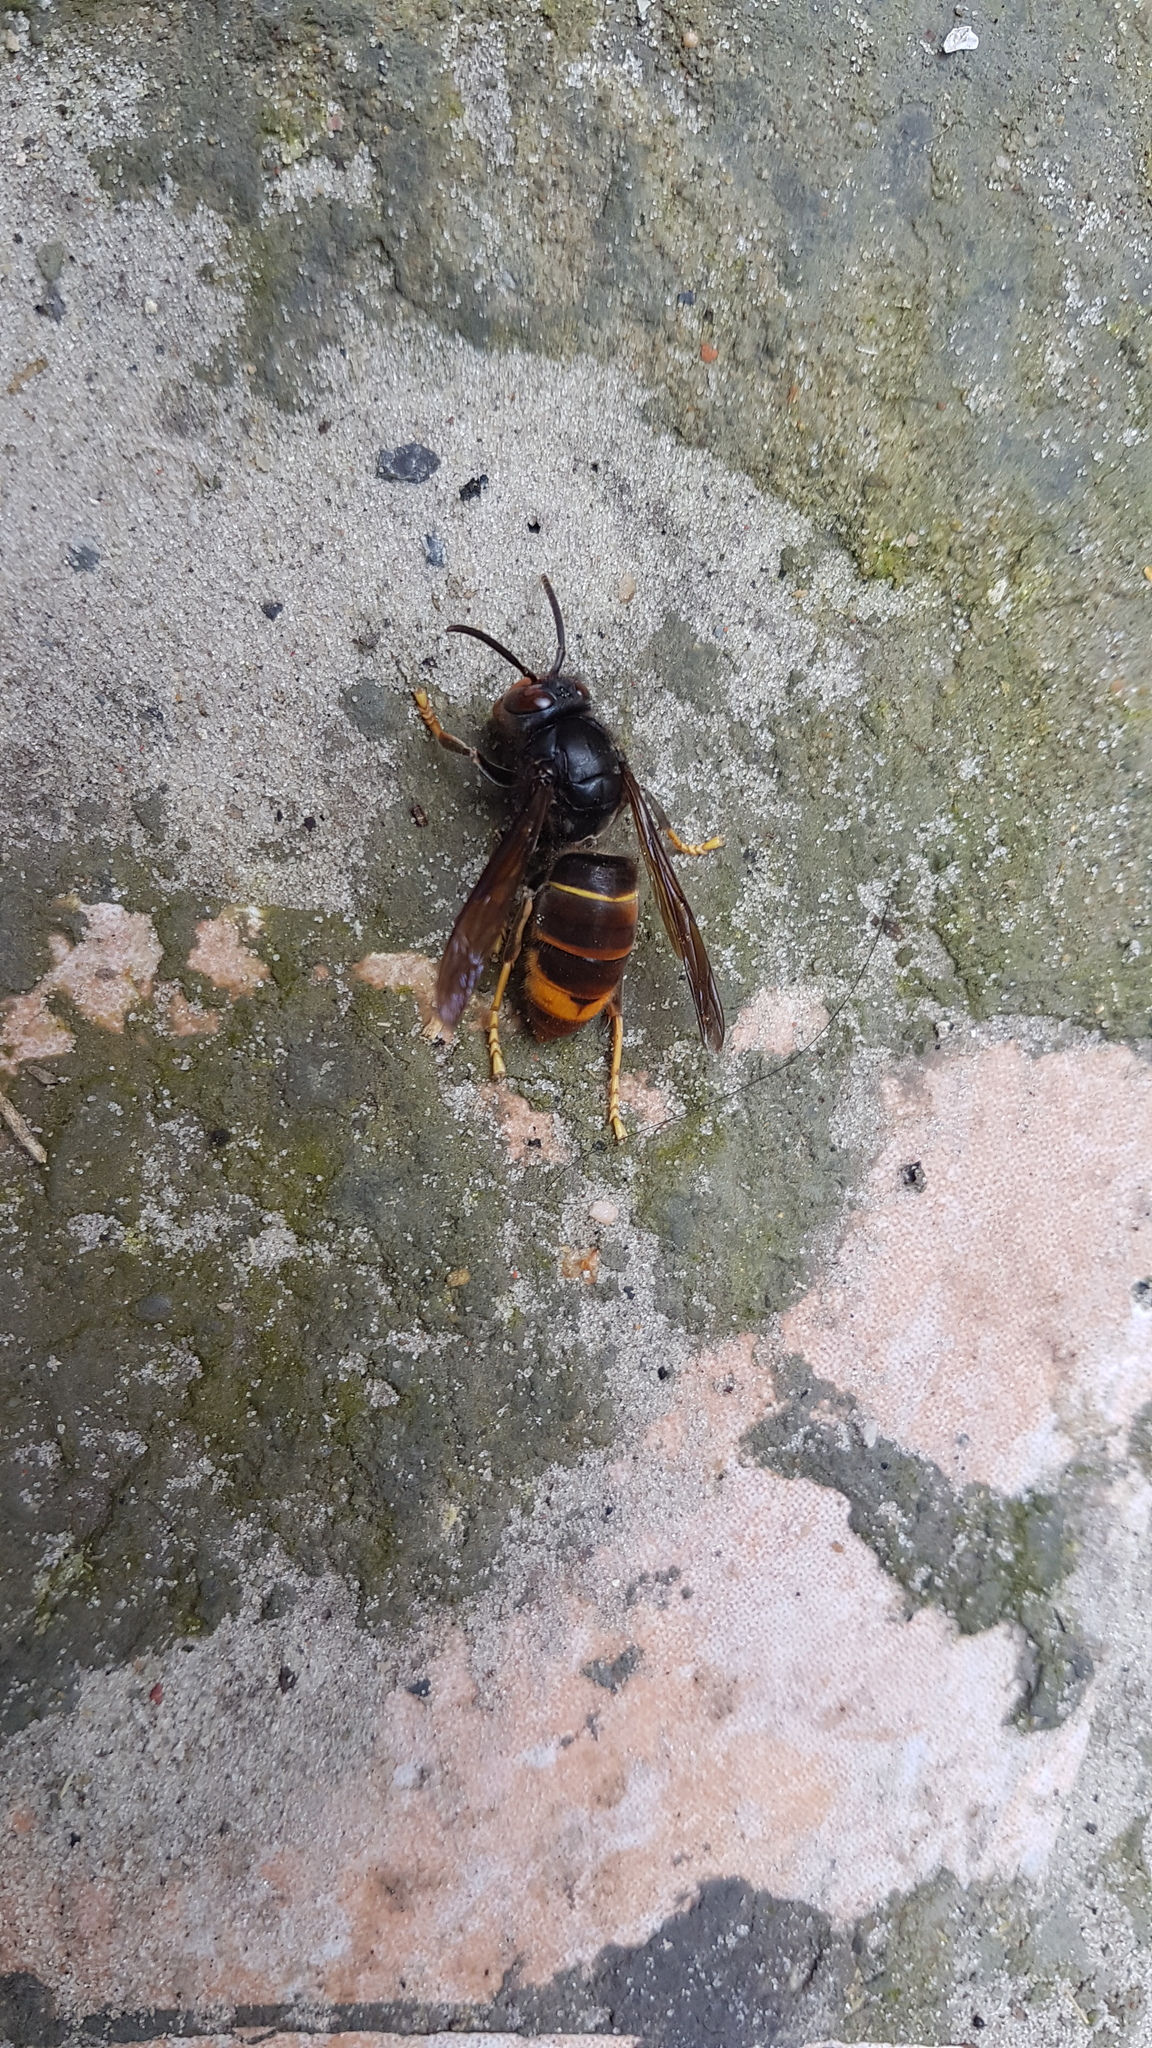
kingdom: Animalia
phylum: Arthropoda
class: Insecta
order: Hymenoptera
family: Vespidae
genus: Vespa
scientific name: Vespa velutina
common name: Asian hornet
